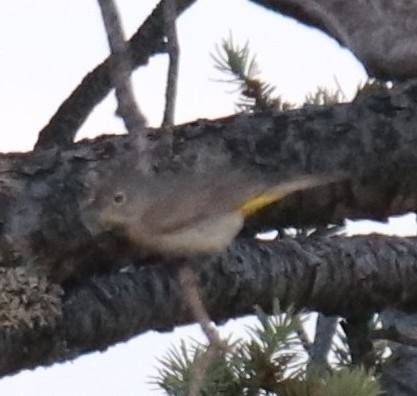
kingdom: Animalia
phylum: Chordata
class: Aves
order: Passeriformes
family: Parulidae
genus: Leiothlypis
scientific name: Leiothlypis virginiae
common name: Virginia's warbler
